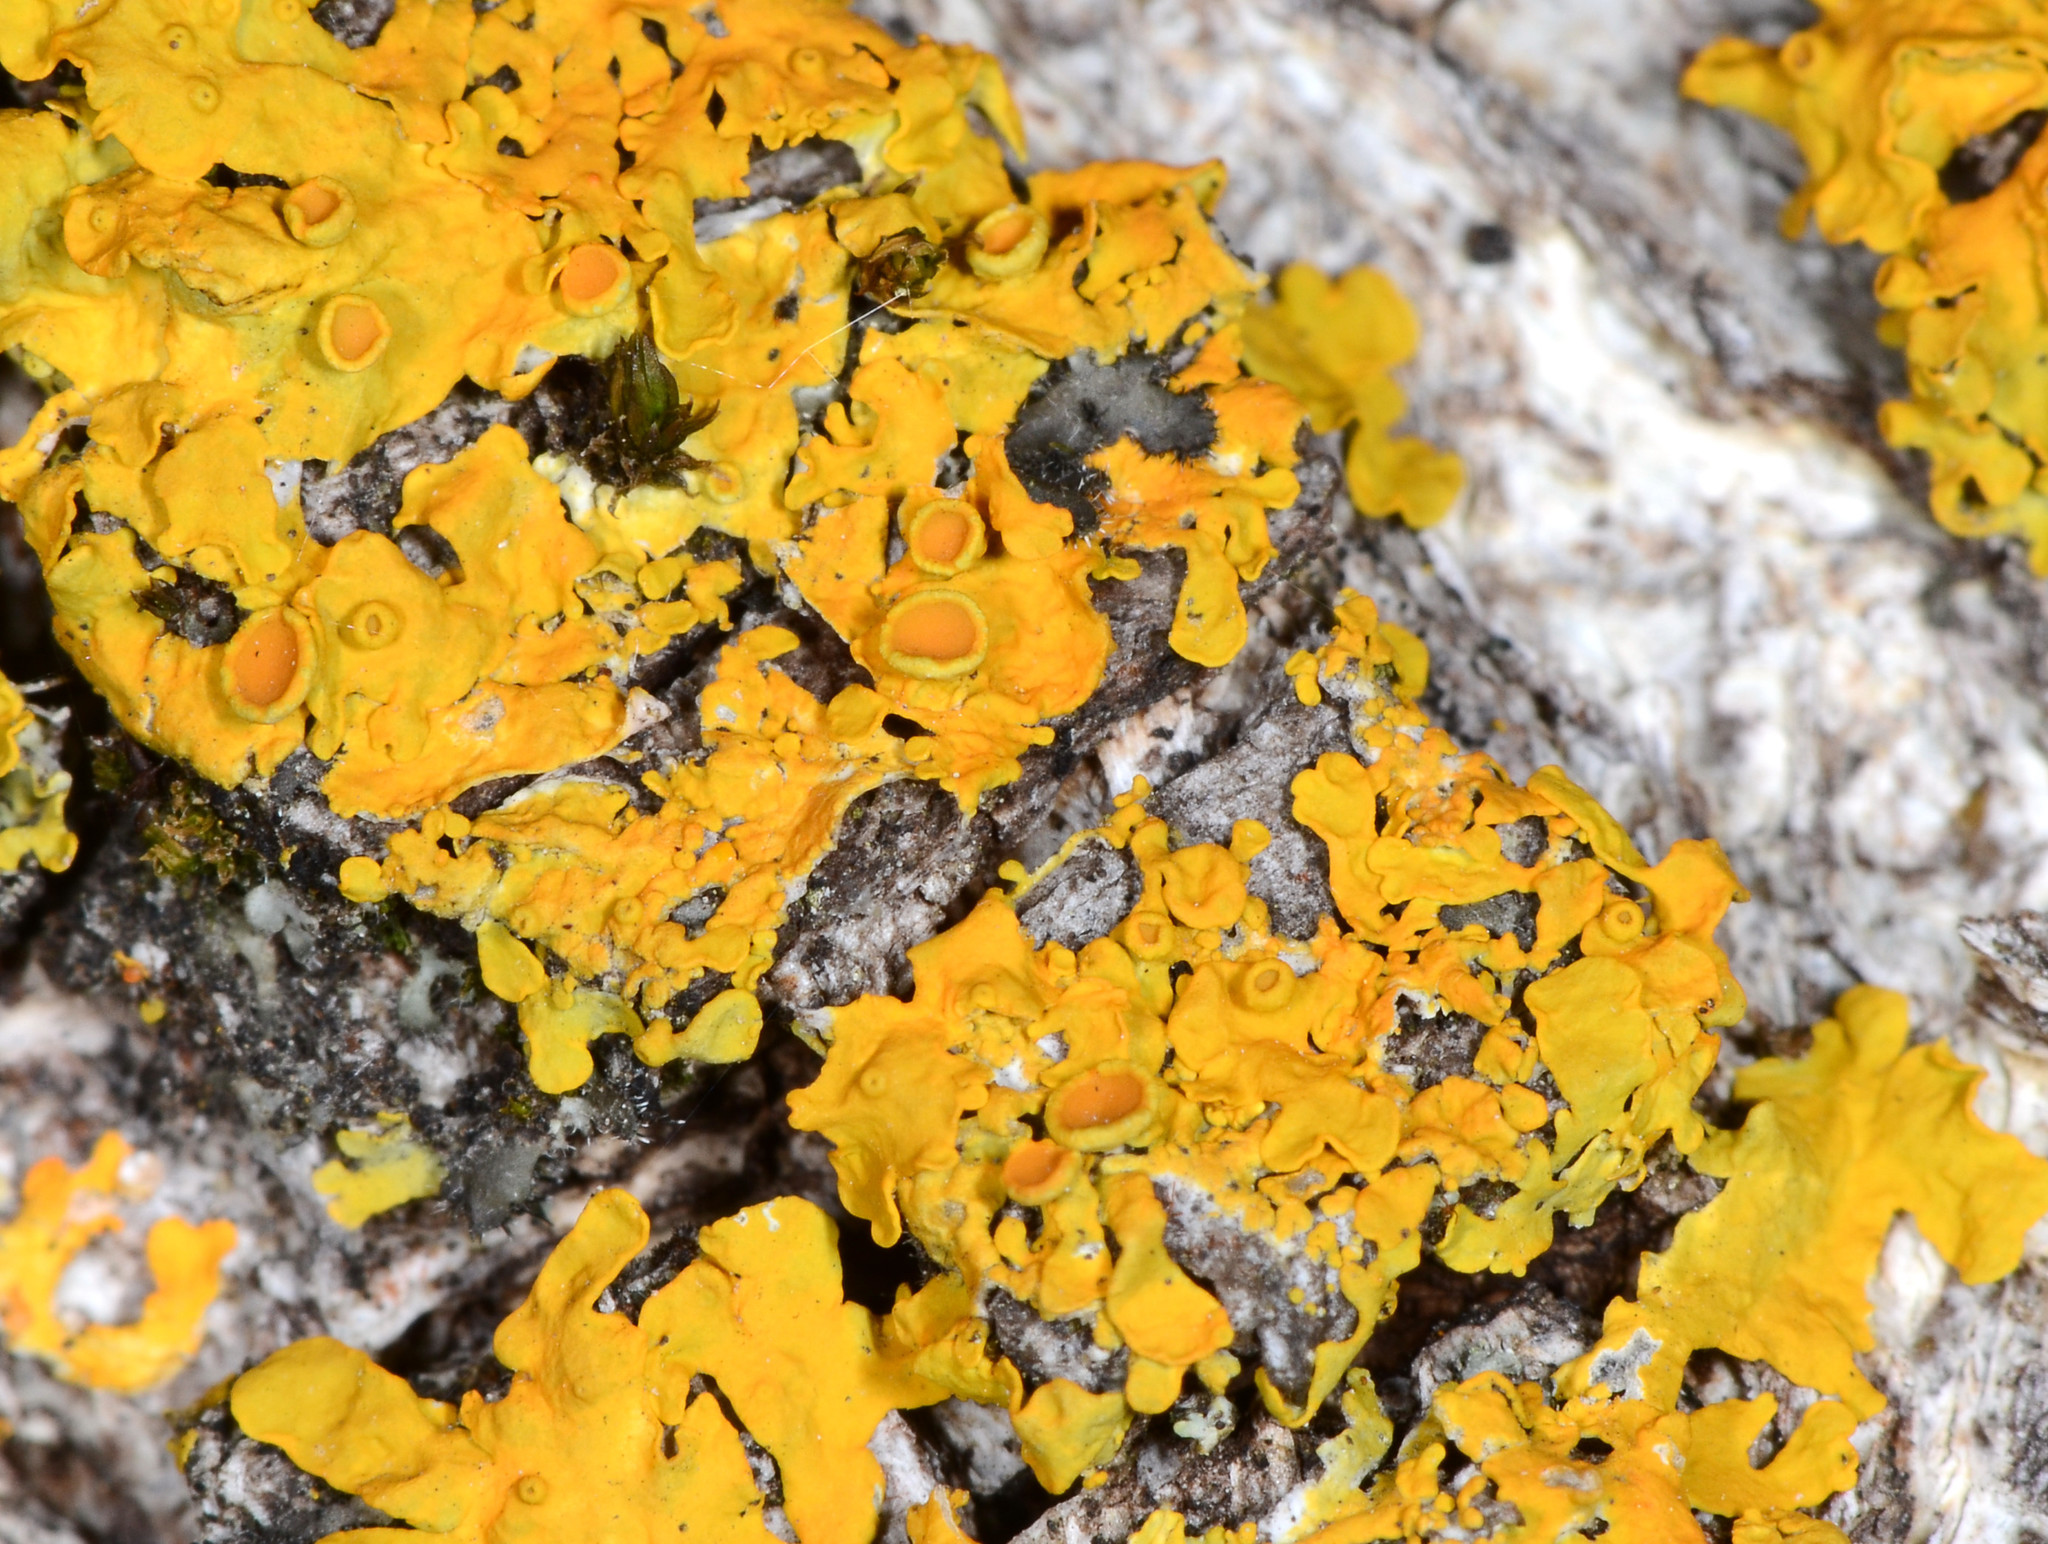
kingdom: Fungi
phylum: Ascomycota
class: Lecanoromycetes
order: Teloschistales
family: Teloschistaceae
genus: Polycauliona
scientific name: Polycauliona polycarpa
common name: Pin-cushion sunburst lichen
